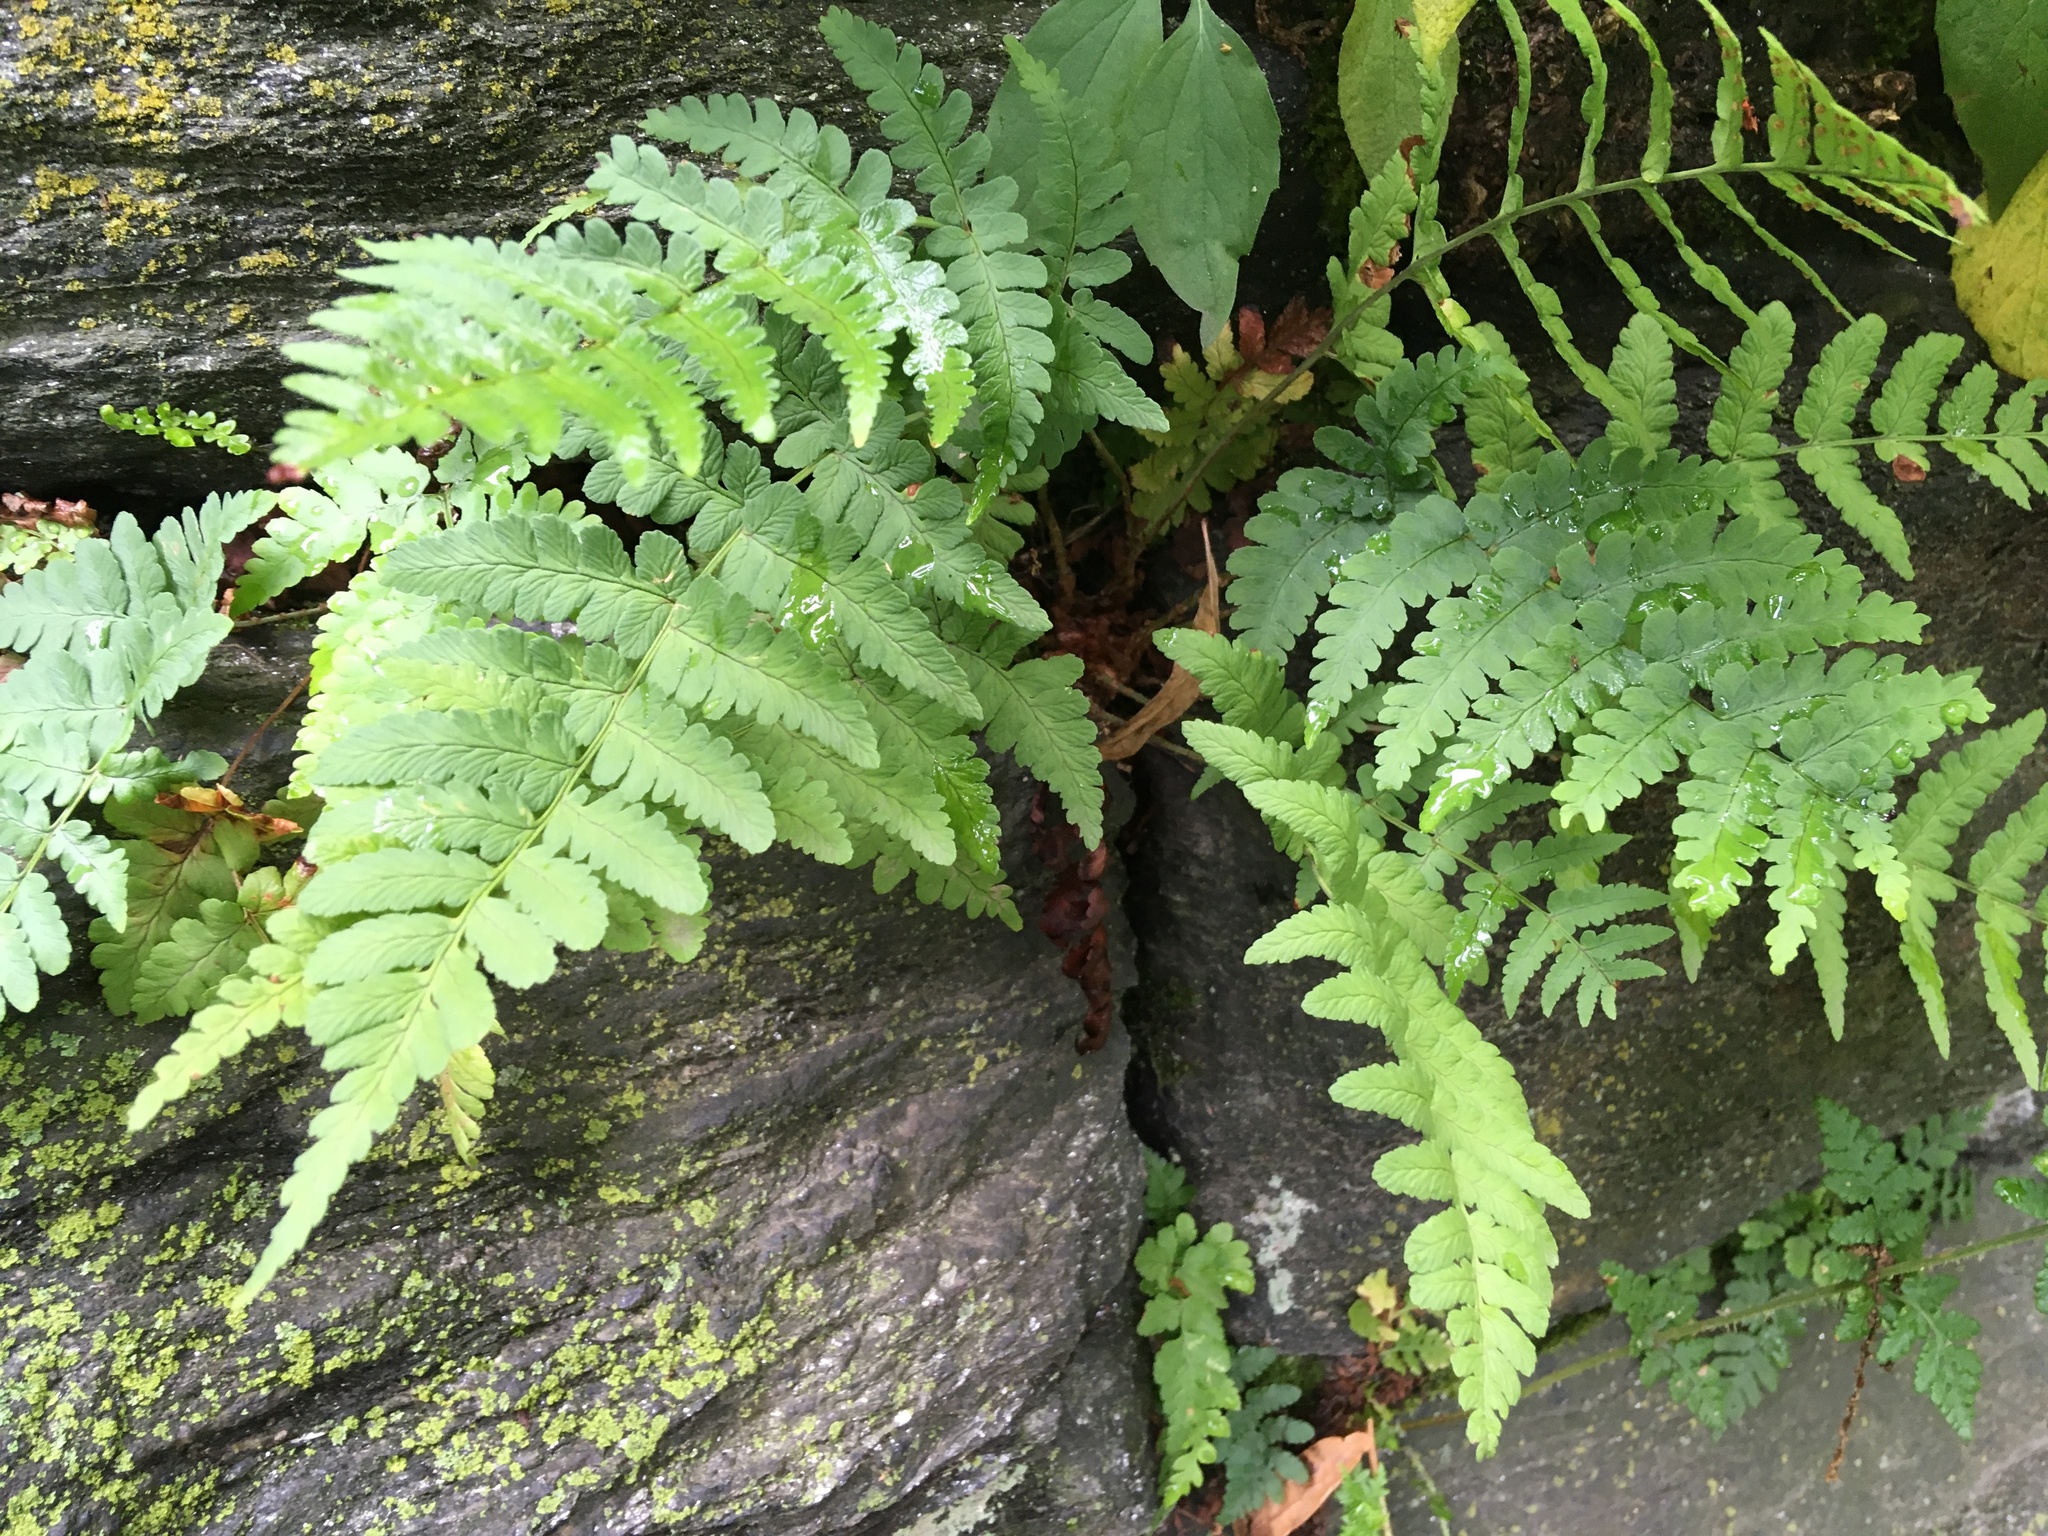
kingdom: Plantae
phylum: Tracheophyta
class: Polypodiopsida
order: Polypodiales
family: Dryopteridaceae
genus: Dryopteris
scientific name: Dryopteris marginalis
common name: Marginal wood fern
